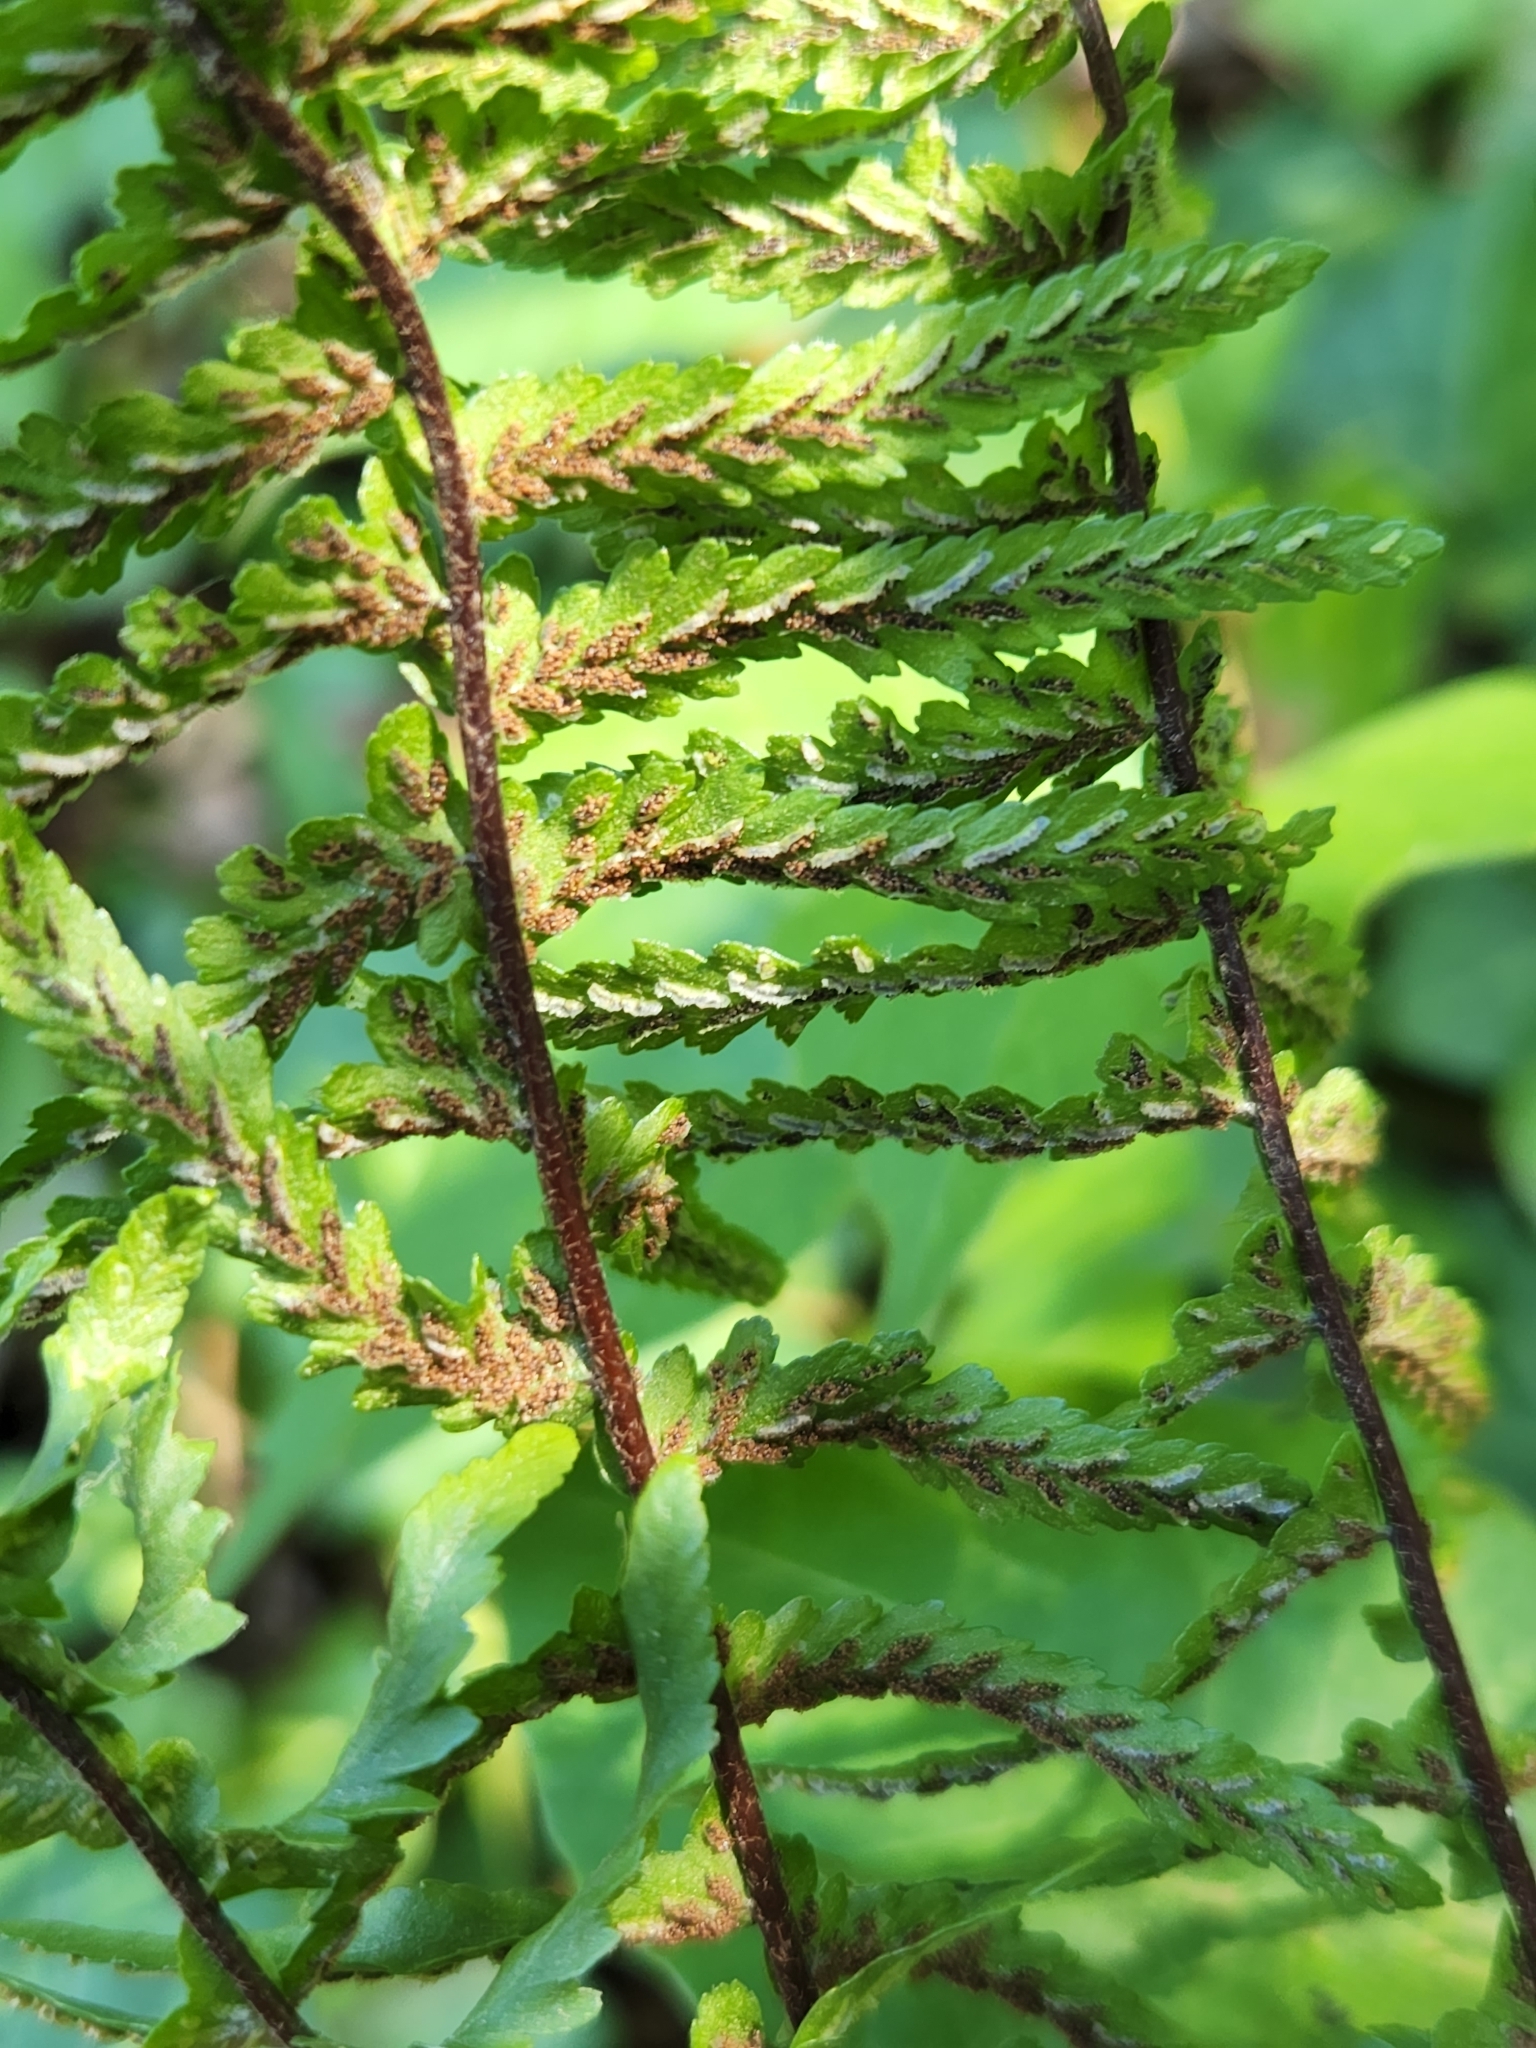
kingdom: Plantae
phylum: Tracheophyta
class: Polypodiopsida
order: Polypodiales
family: Aspleniaceae
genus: Asplenium
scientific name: Asplenium platyneuron
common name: Ebony spleenwort
